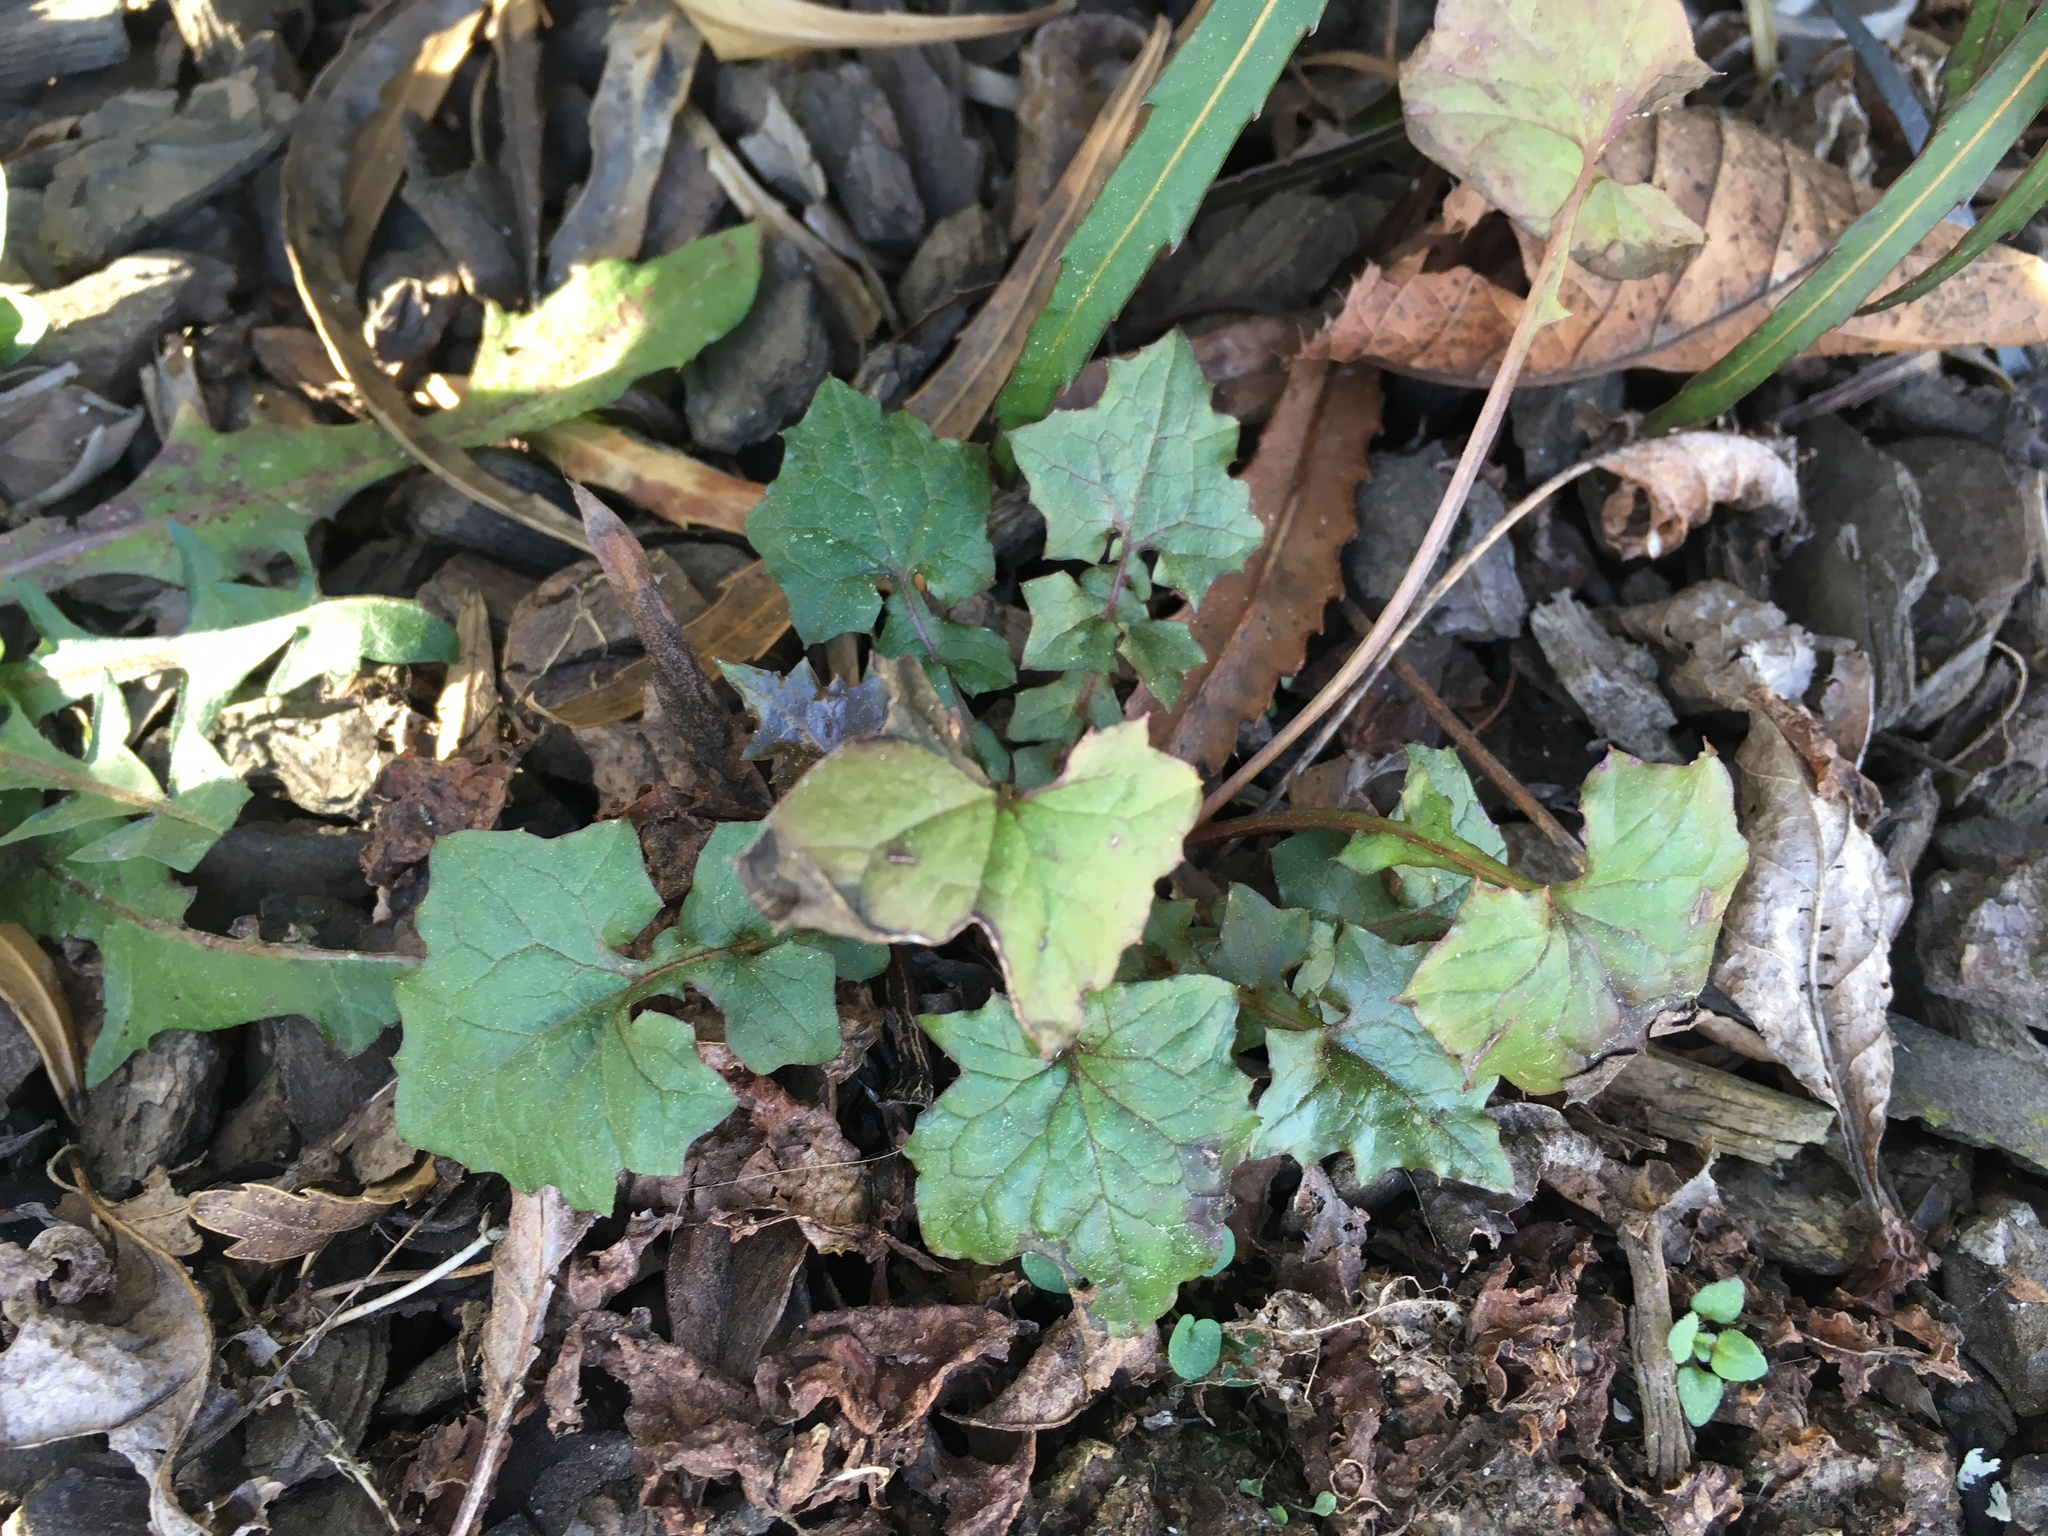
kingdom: Plantae
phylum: Tracheophyta
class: Magnoliopsida
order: Asterales
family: Asteraceae
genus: Mycelis
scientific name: Mycelis muralis
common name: Wall lettuce
